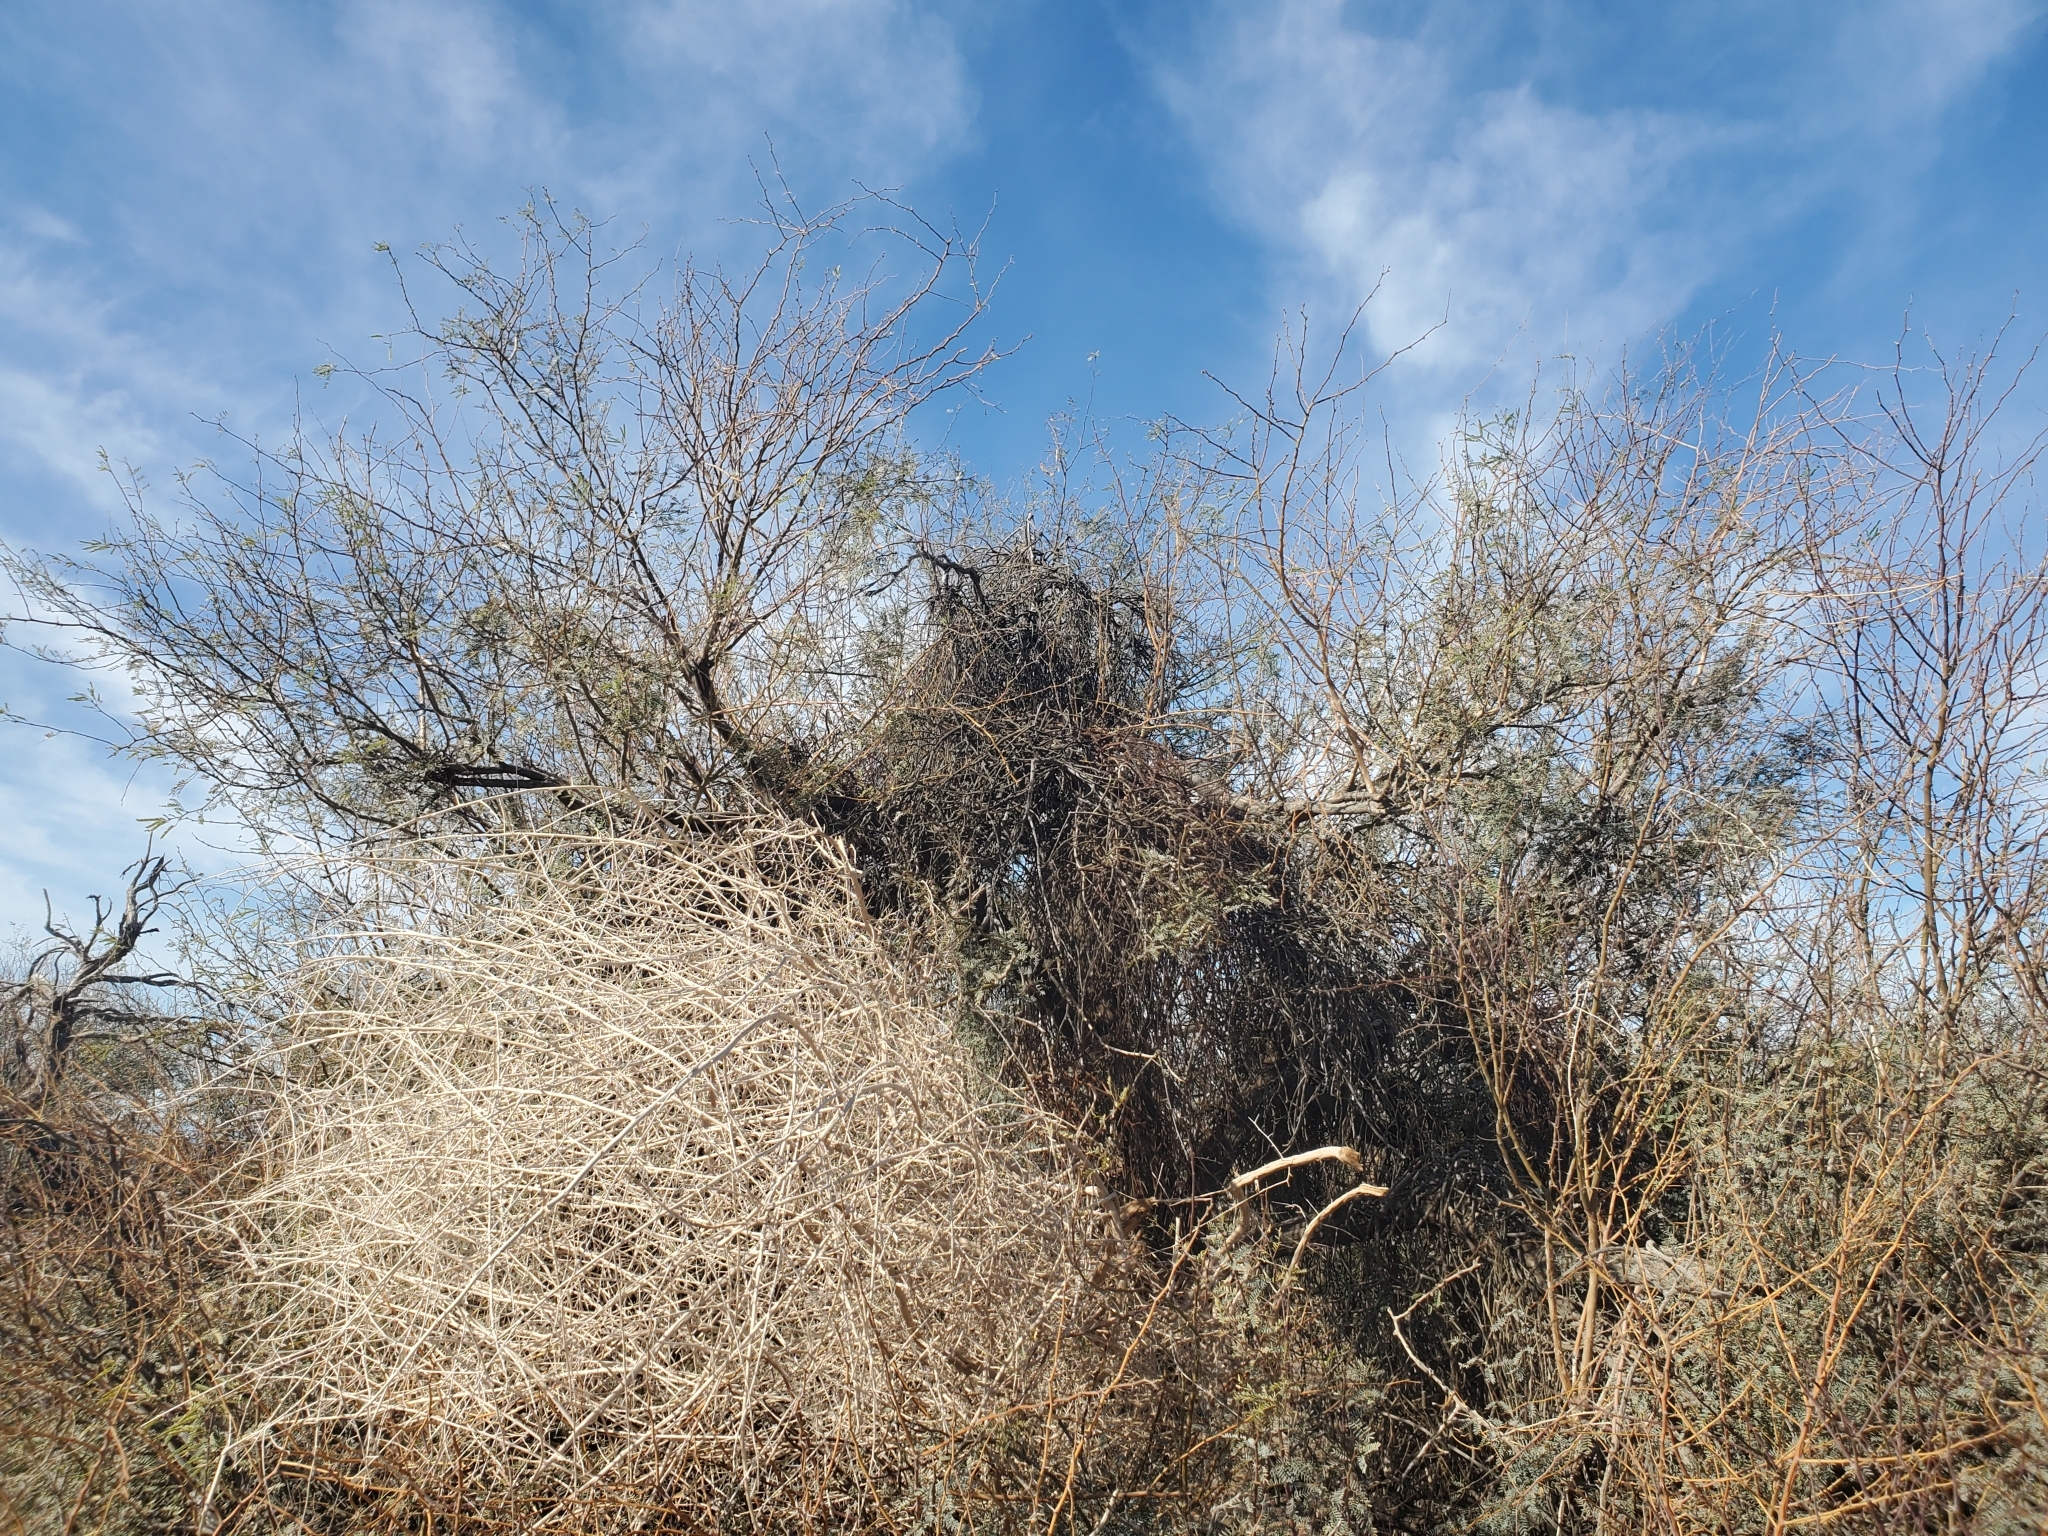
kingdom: Plantae
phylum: Tracheophyta
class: Magnoliopsida
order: Santalales
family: Viscaceae
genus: Phoradendron
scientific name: Phoradendron californicum
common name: Acacia mistletoe
